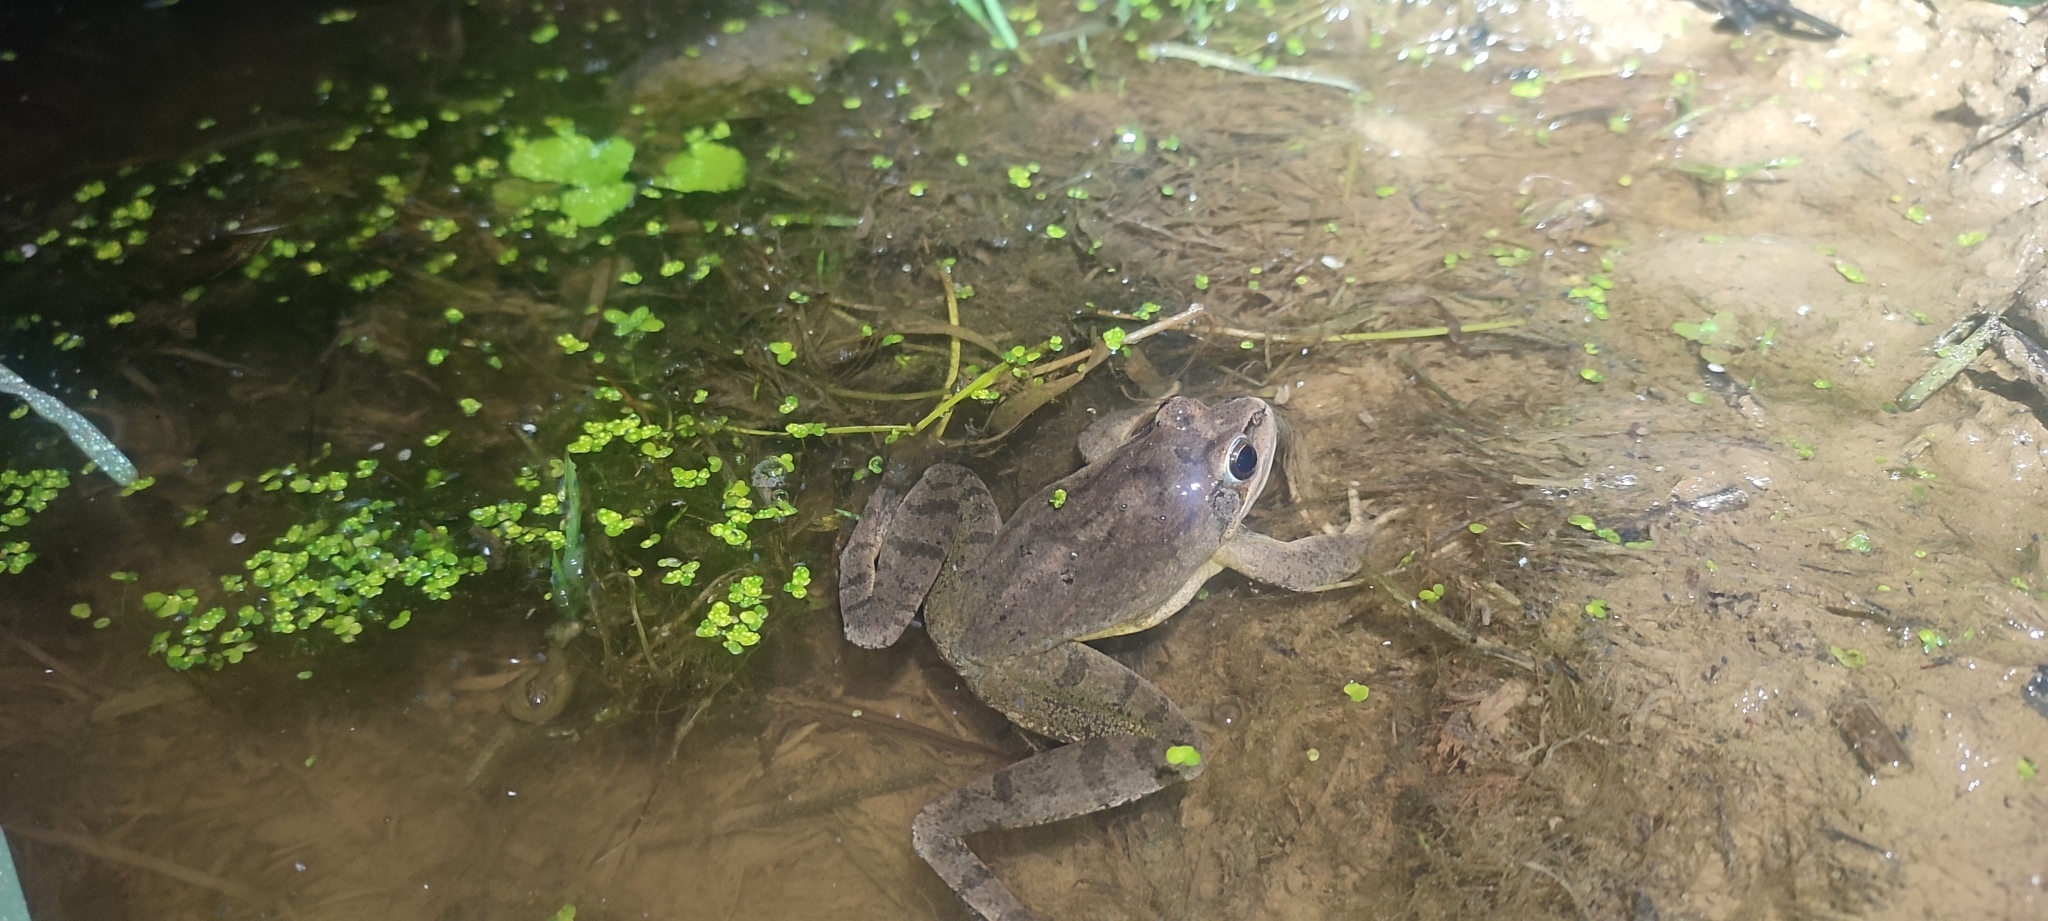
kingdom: Animalia
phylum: Chordata
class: Amphibia
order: Anura
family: Ranidae
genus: Rana
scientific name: Rana dalmatina
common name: Agile frog
